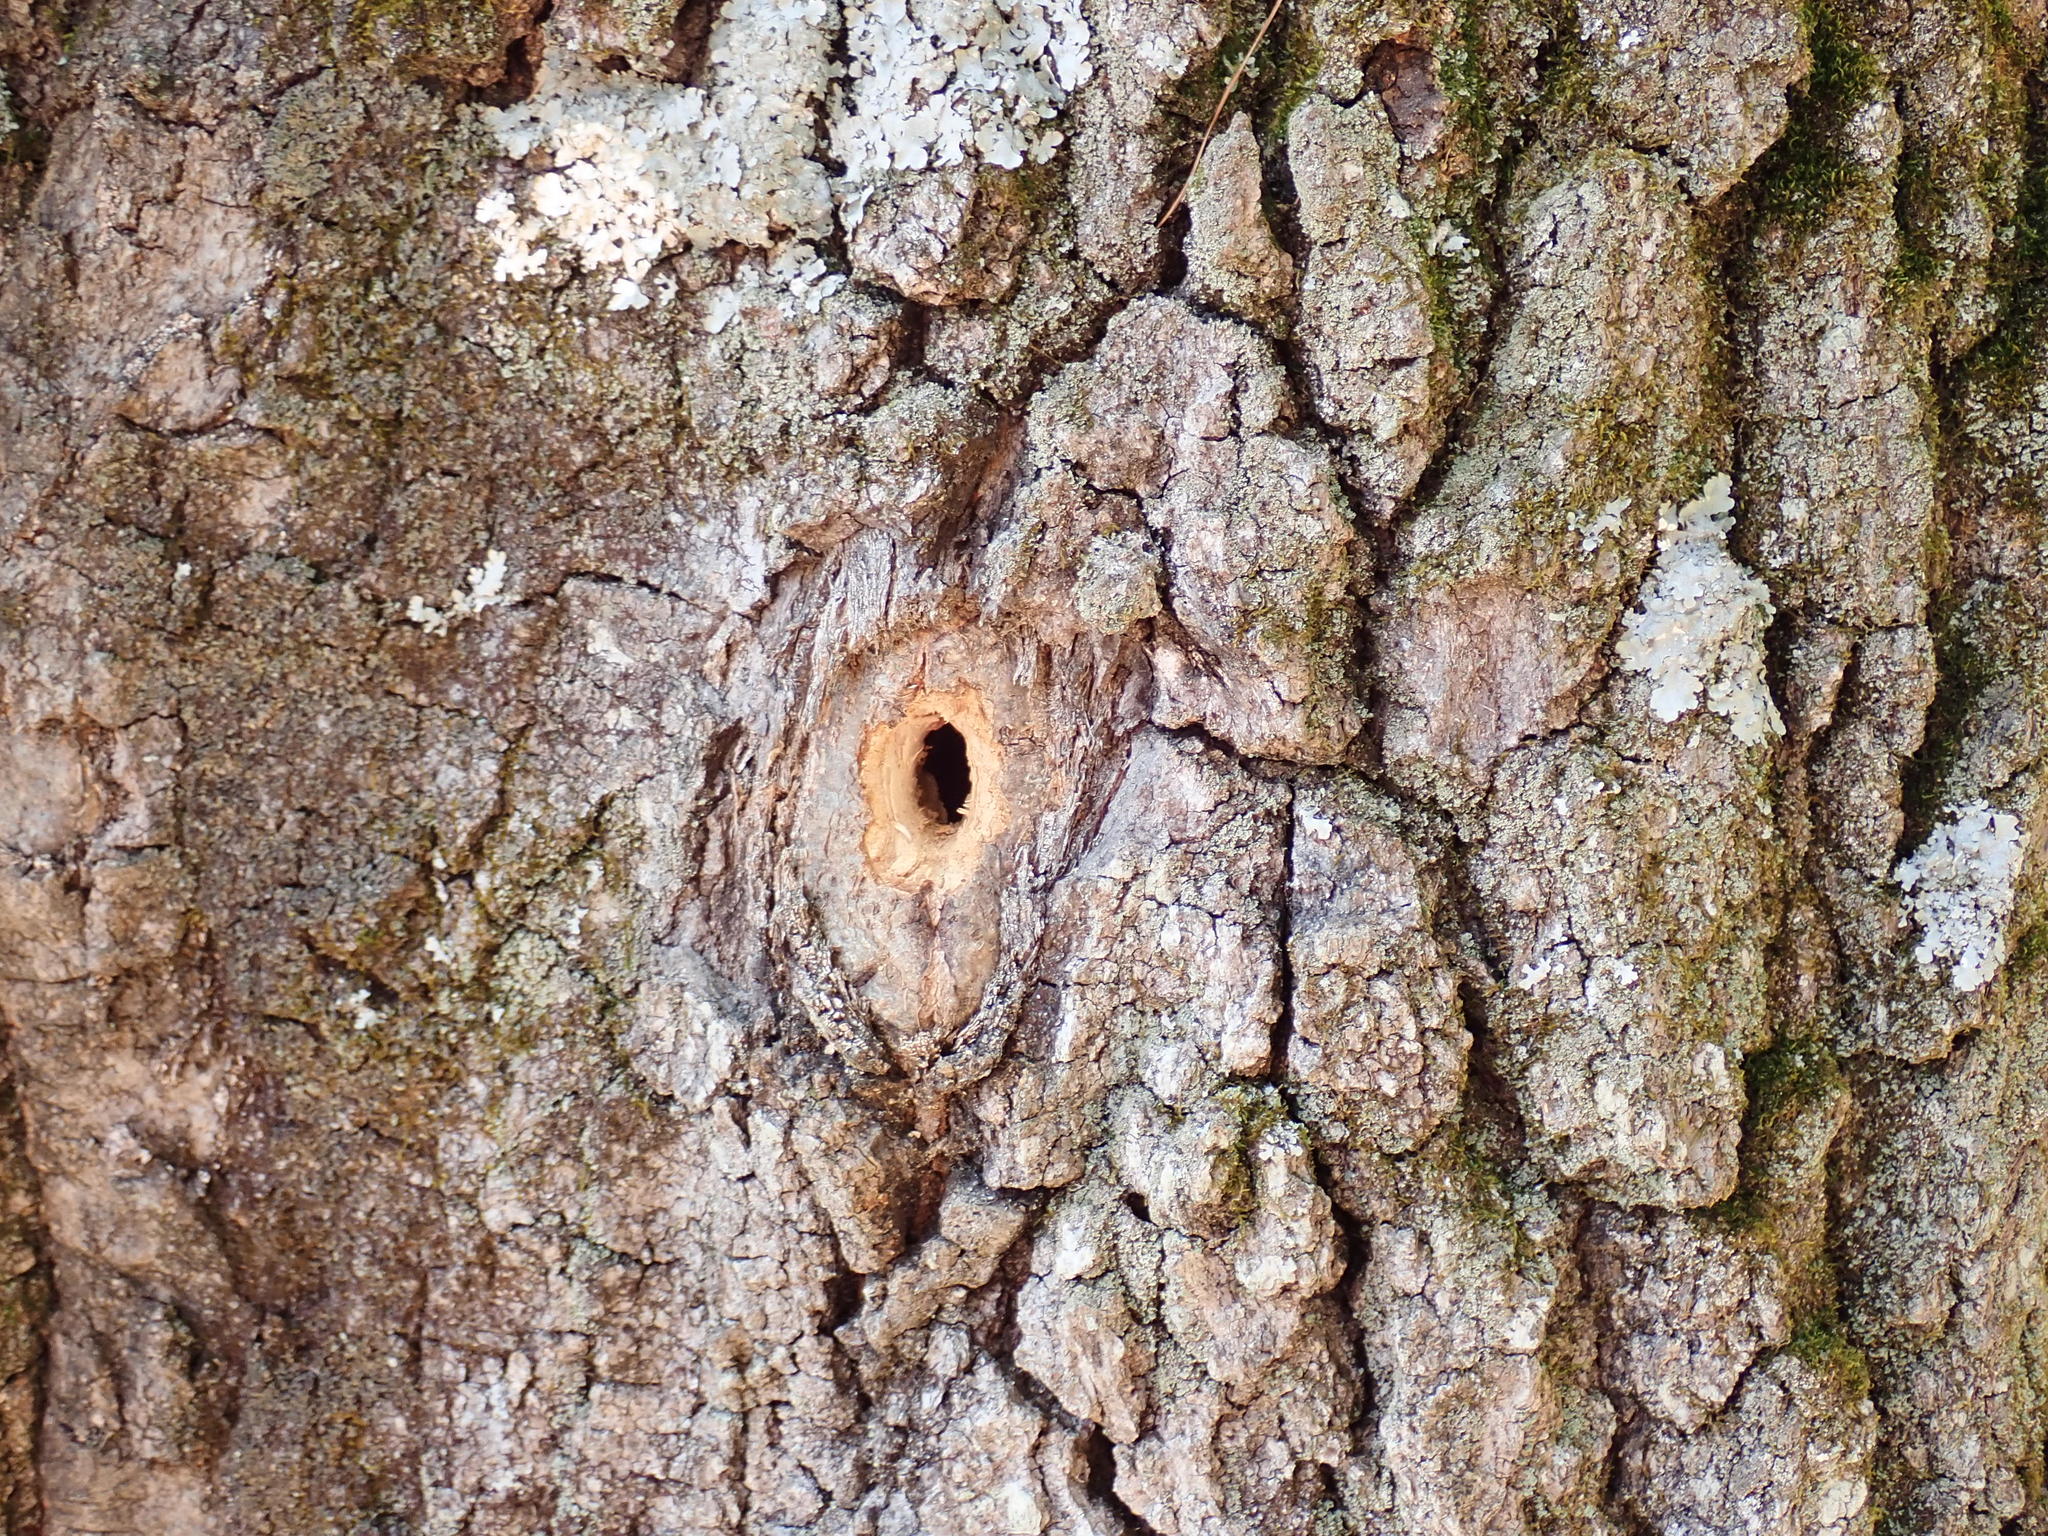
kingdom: Animalia
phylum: Chordata
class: Aves
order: Piciformes
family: Picidae
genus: Dryocopus
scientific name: Dryocopus pileatus
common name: Pileated woodpecker
